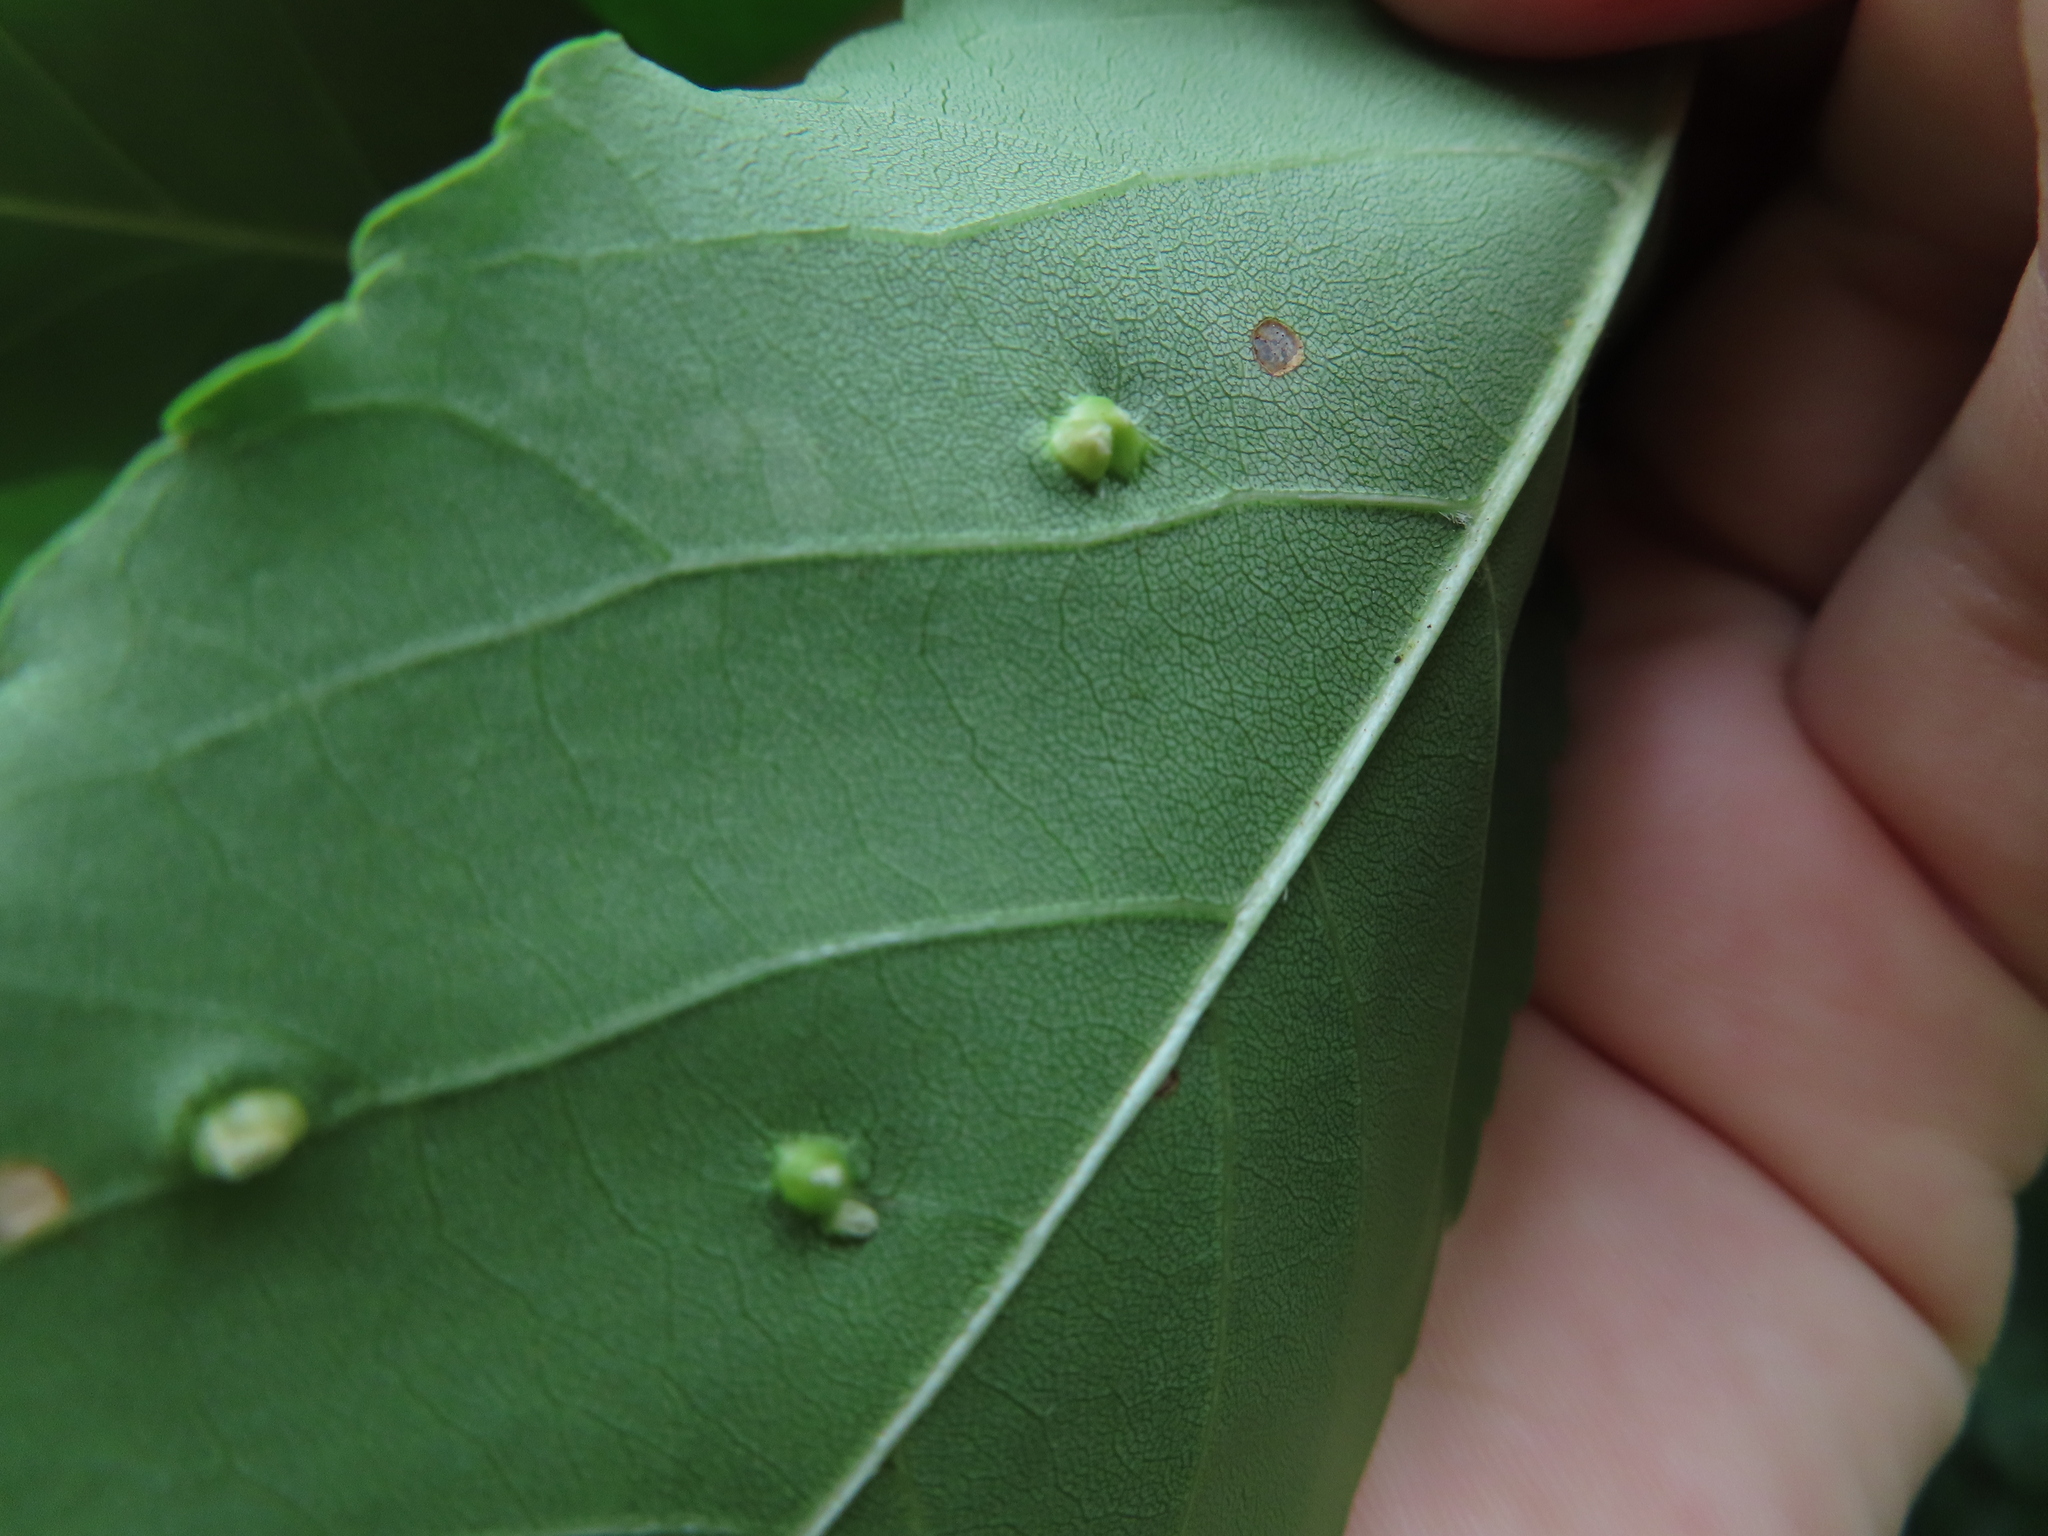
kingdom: Animalia
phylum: Arthropoda
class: Arachnida
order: Trombidiformes
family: Eriophyidae
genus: Aceria
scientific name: Aceria fraxinicola
